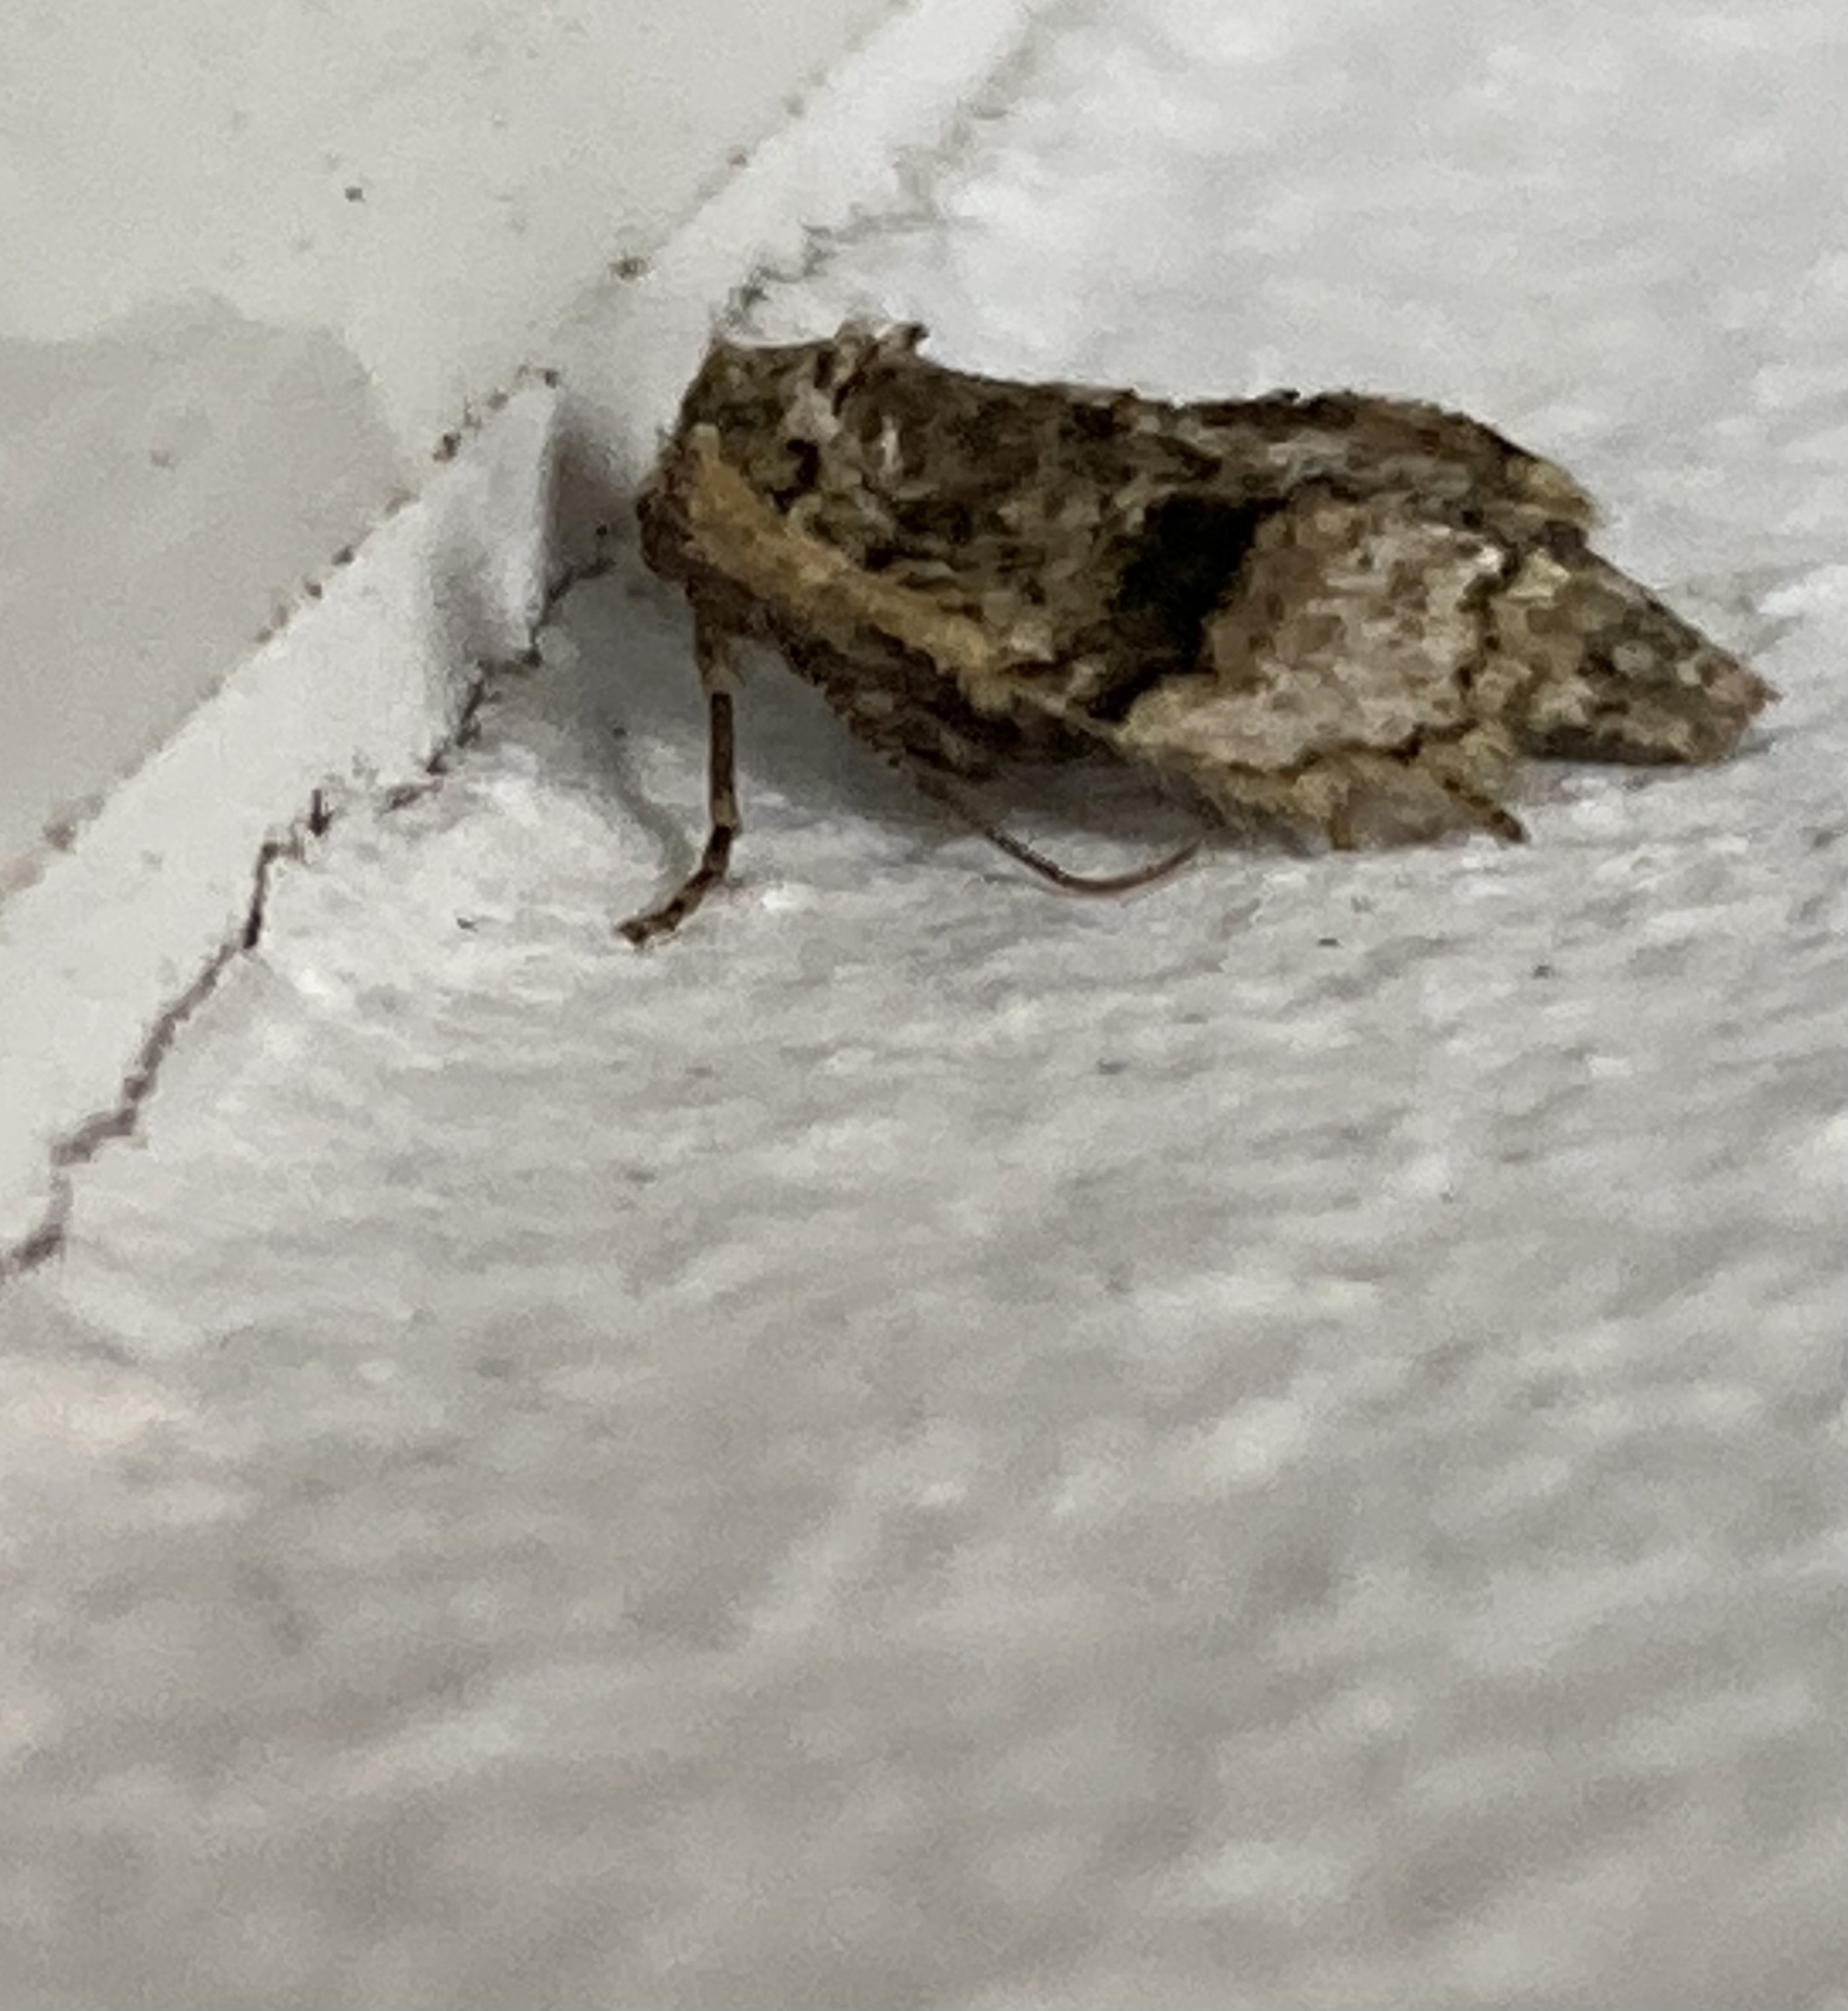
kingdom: Animalia
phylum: Arthropoda
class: Insecta
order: Lepidoptera
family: Geometridae
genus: Agriopis
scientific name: Agriopis marginaria
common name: Dotted border
